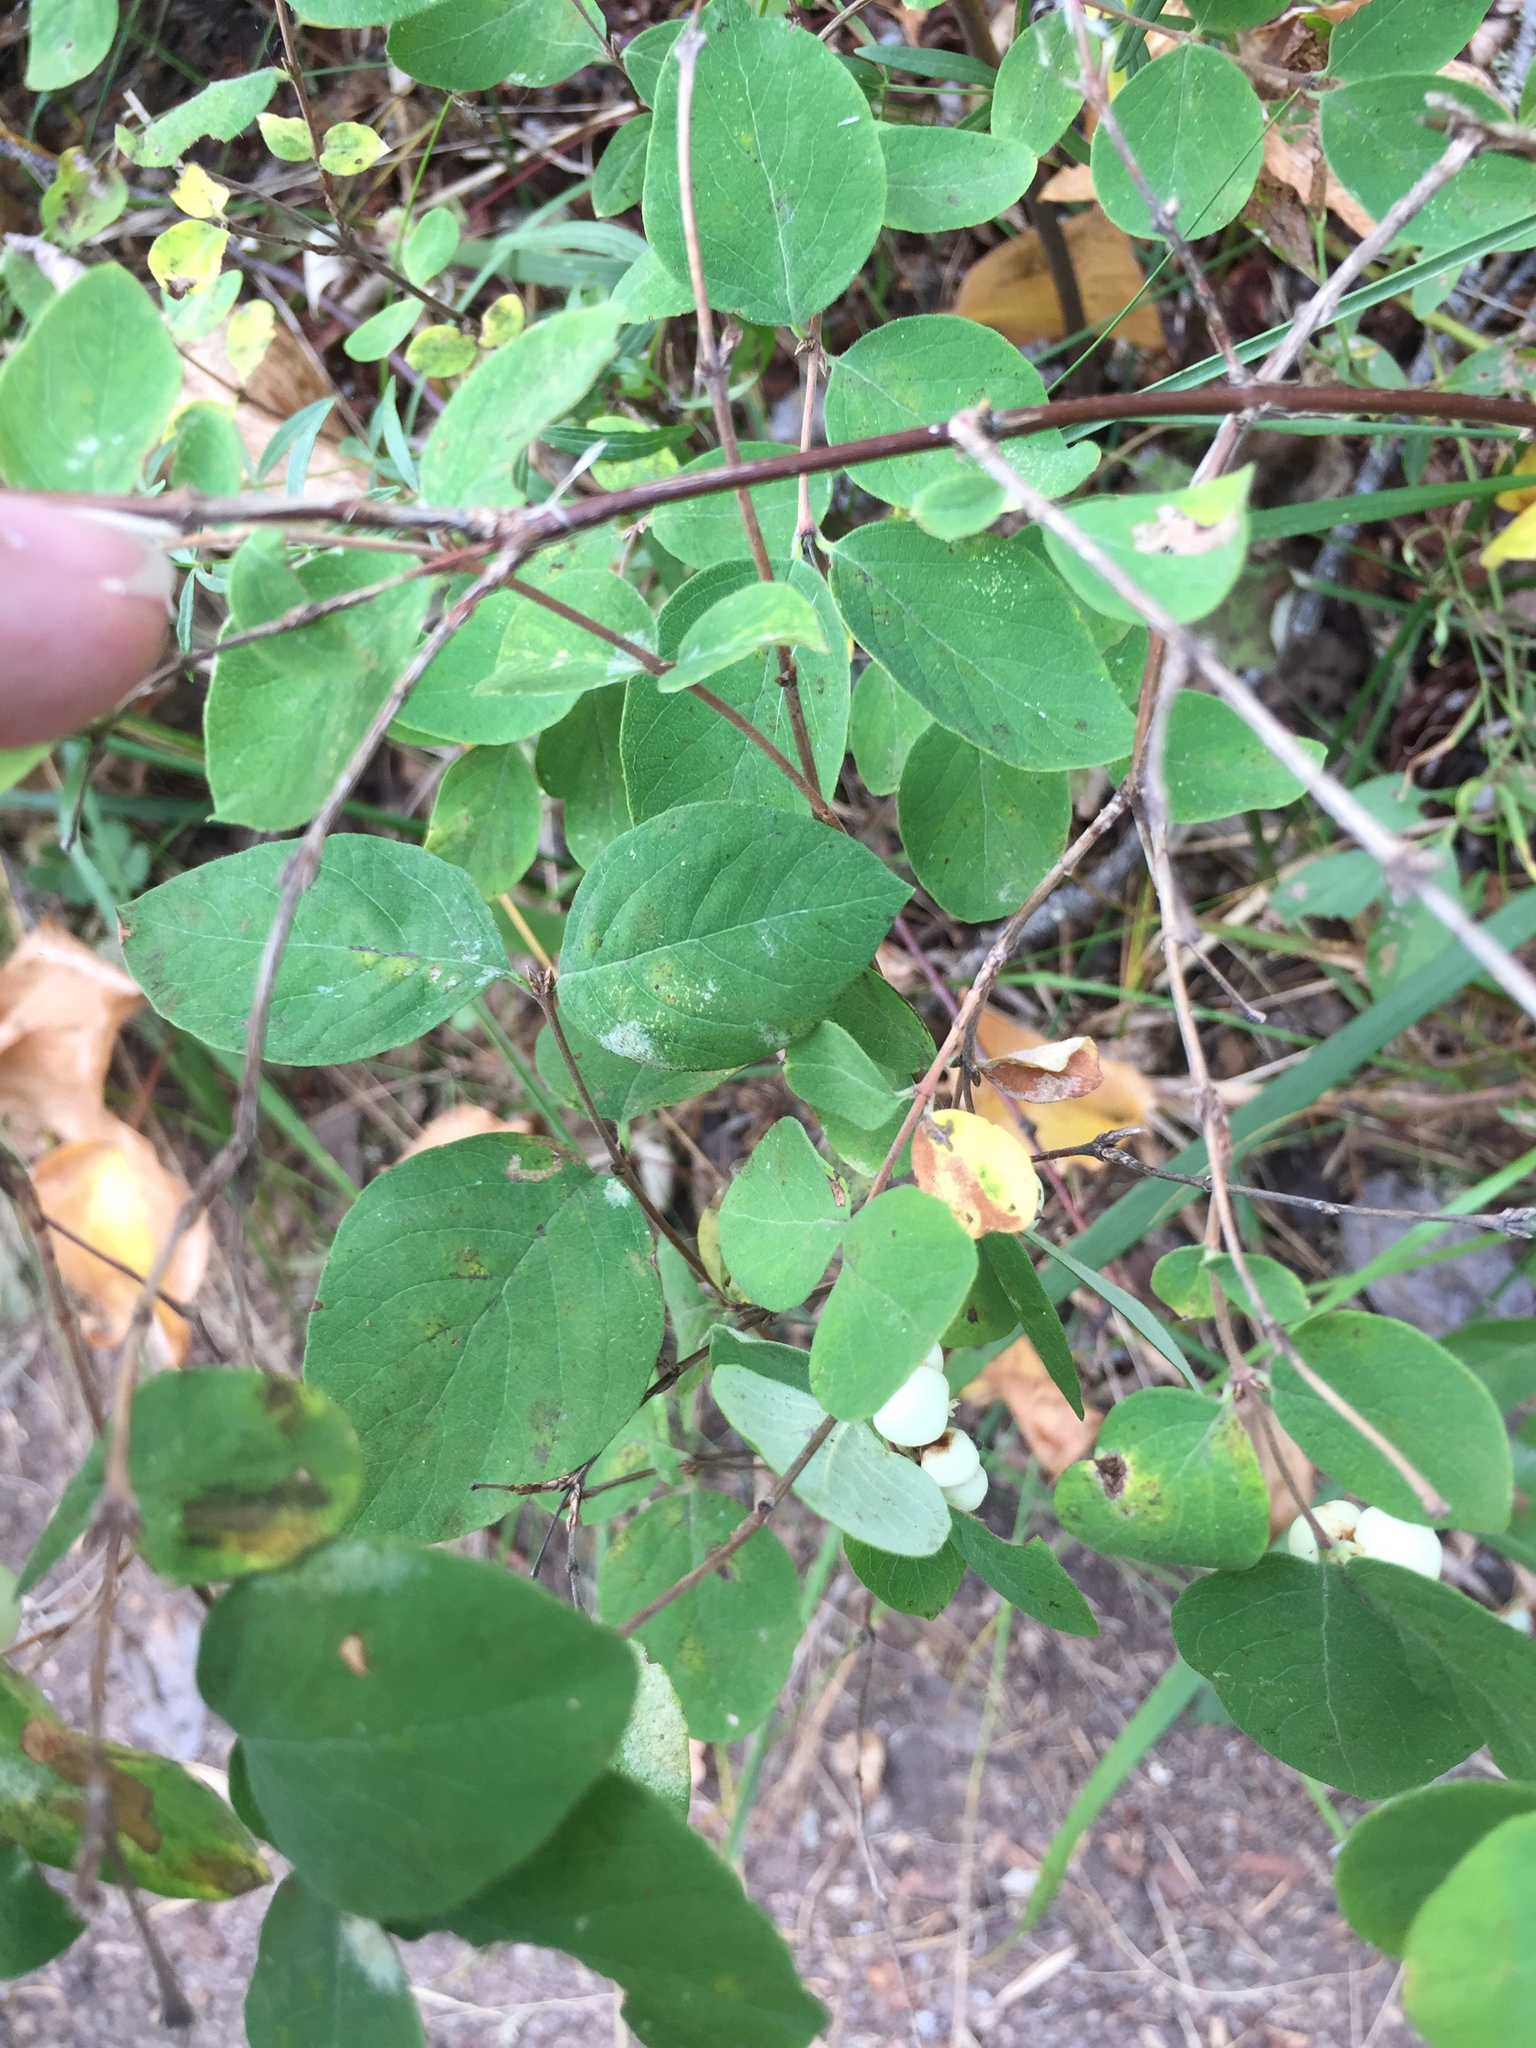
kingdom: Plantae
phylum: Tracheophyta
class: Magnoliopsida
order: Dipsacales
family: Caprifoliaceae
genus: Symphoricarpos
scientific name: Symphoricarpos albus
